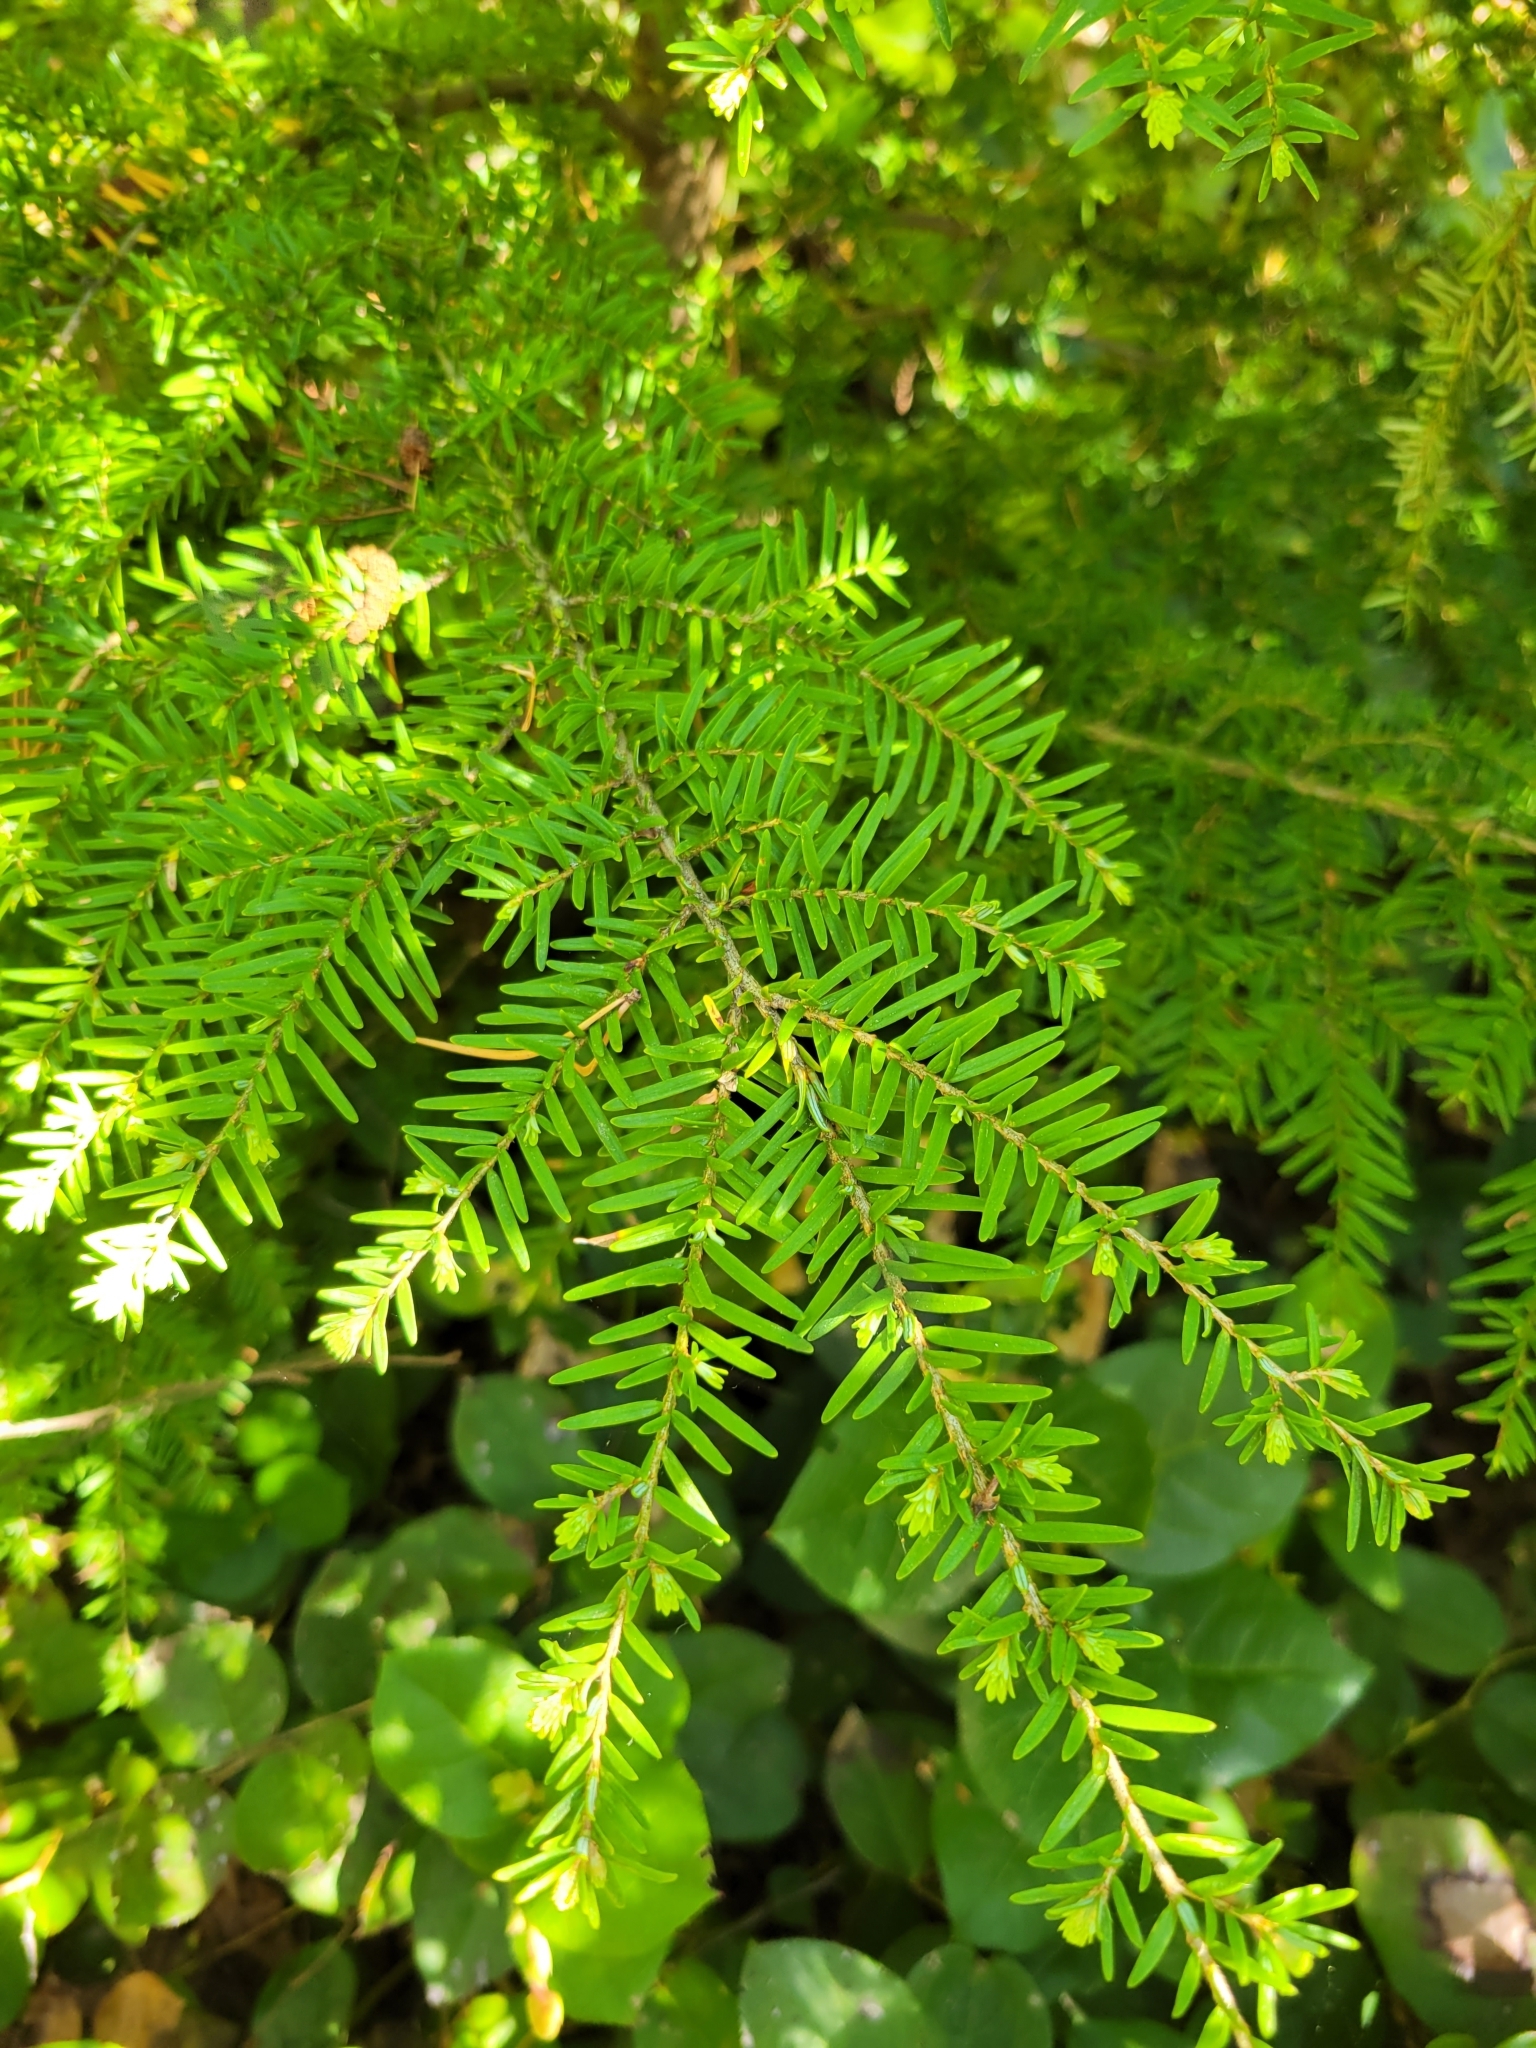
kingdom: Plantae
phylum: Tracheophyta
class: Pinopsida
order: Pinales
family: Pinaceae
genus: Tsuga
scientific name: Tsuga heterophylla
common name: Western hemlock
